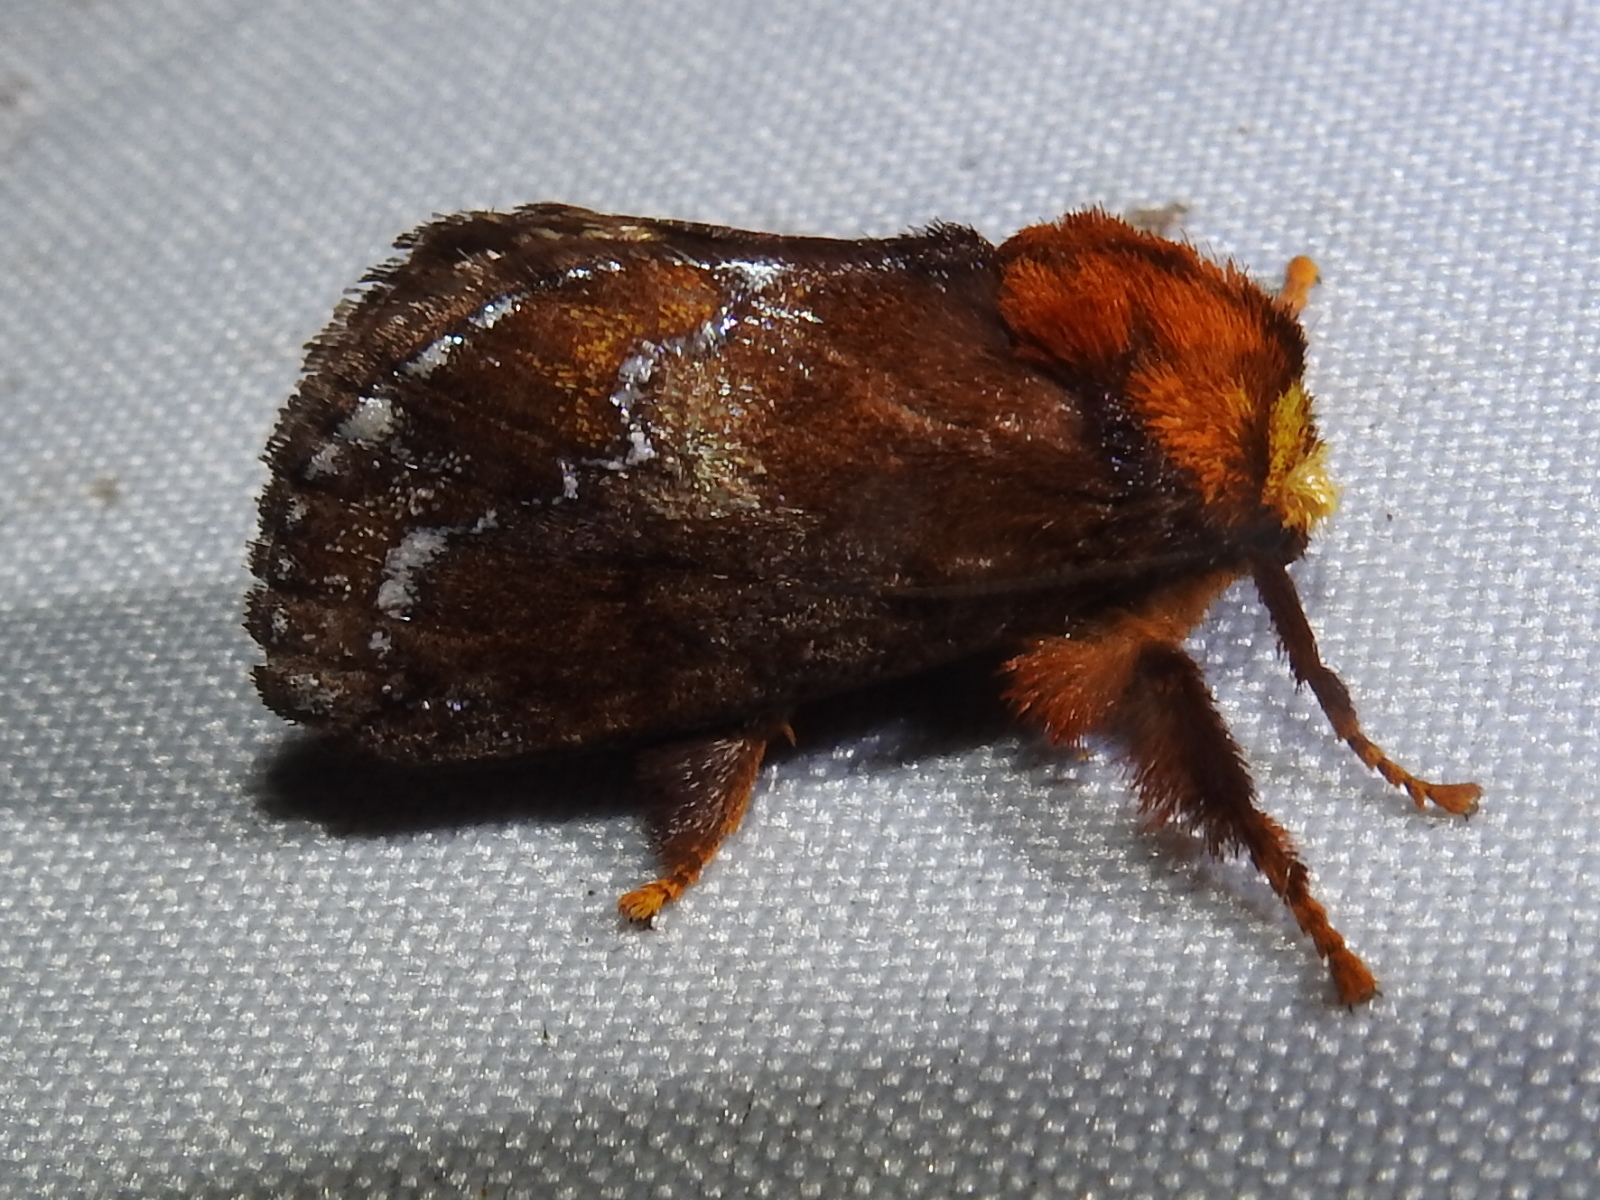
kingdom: Animalia
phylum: Arthropoda
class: Insecta
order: Lepidoptera
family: Limacodidae
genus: Miresa
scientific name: Miresa clarissa
